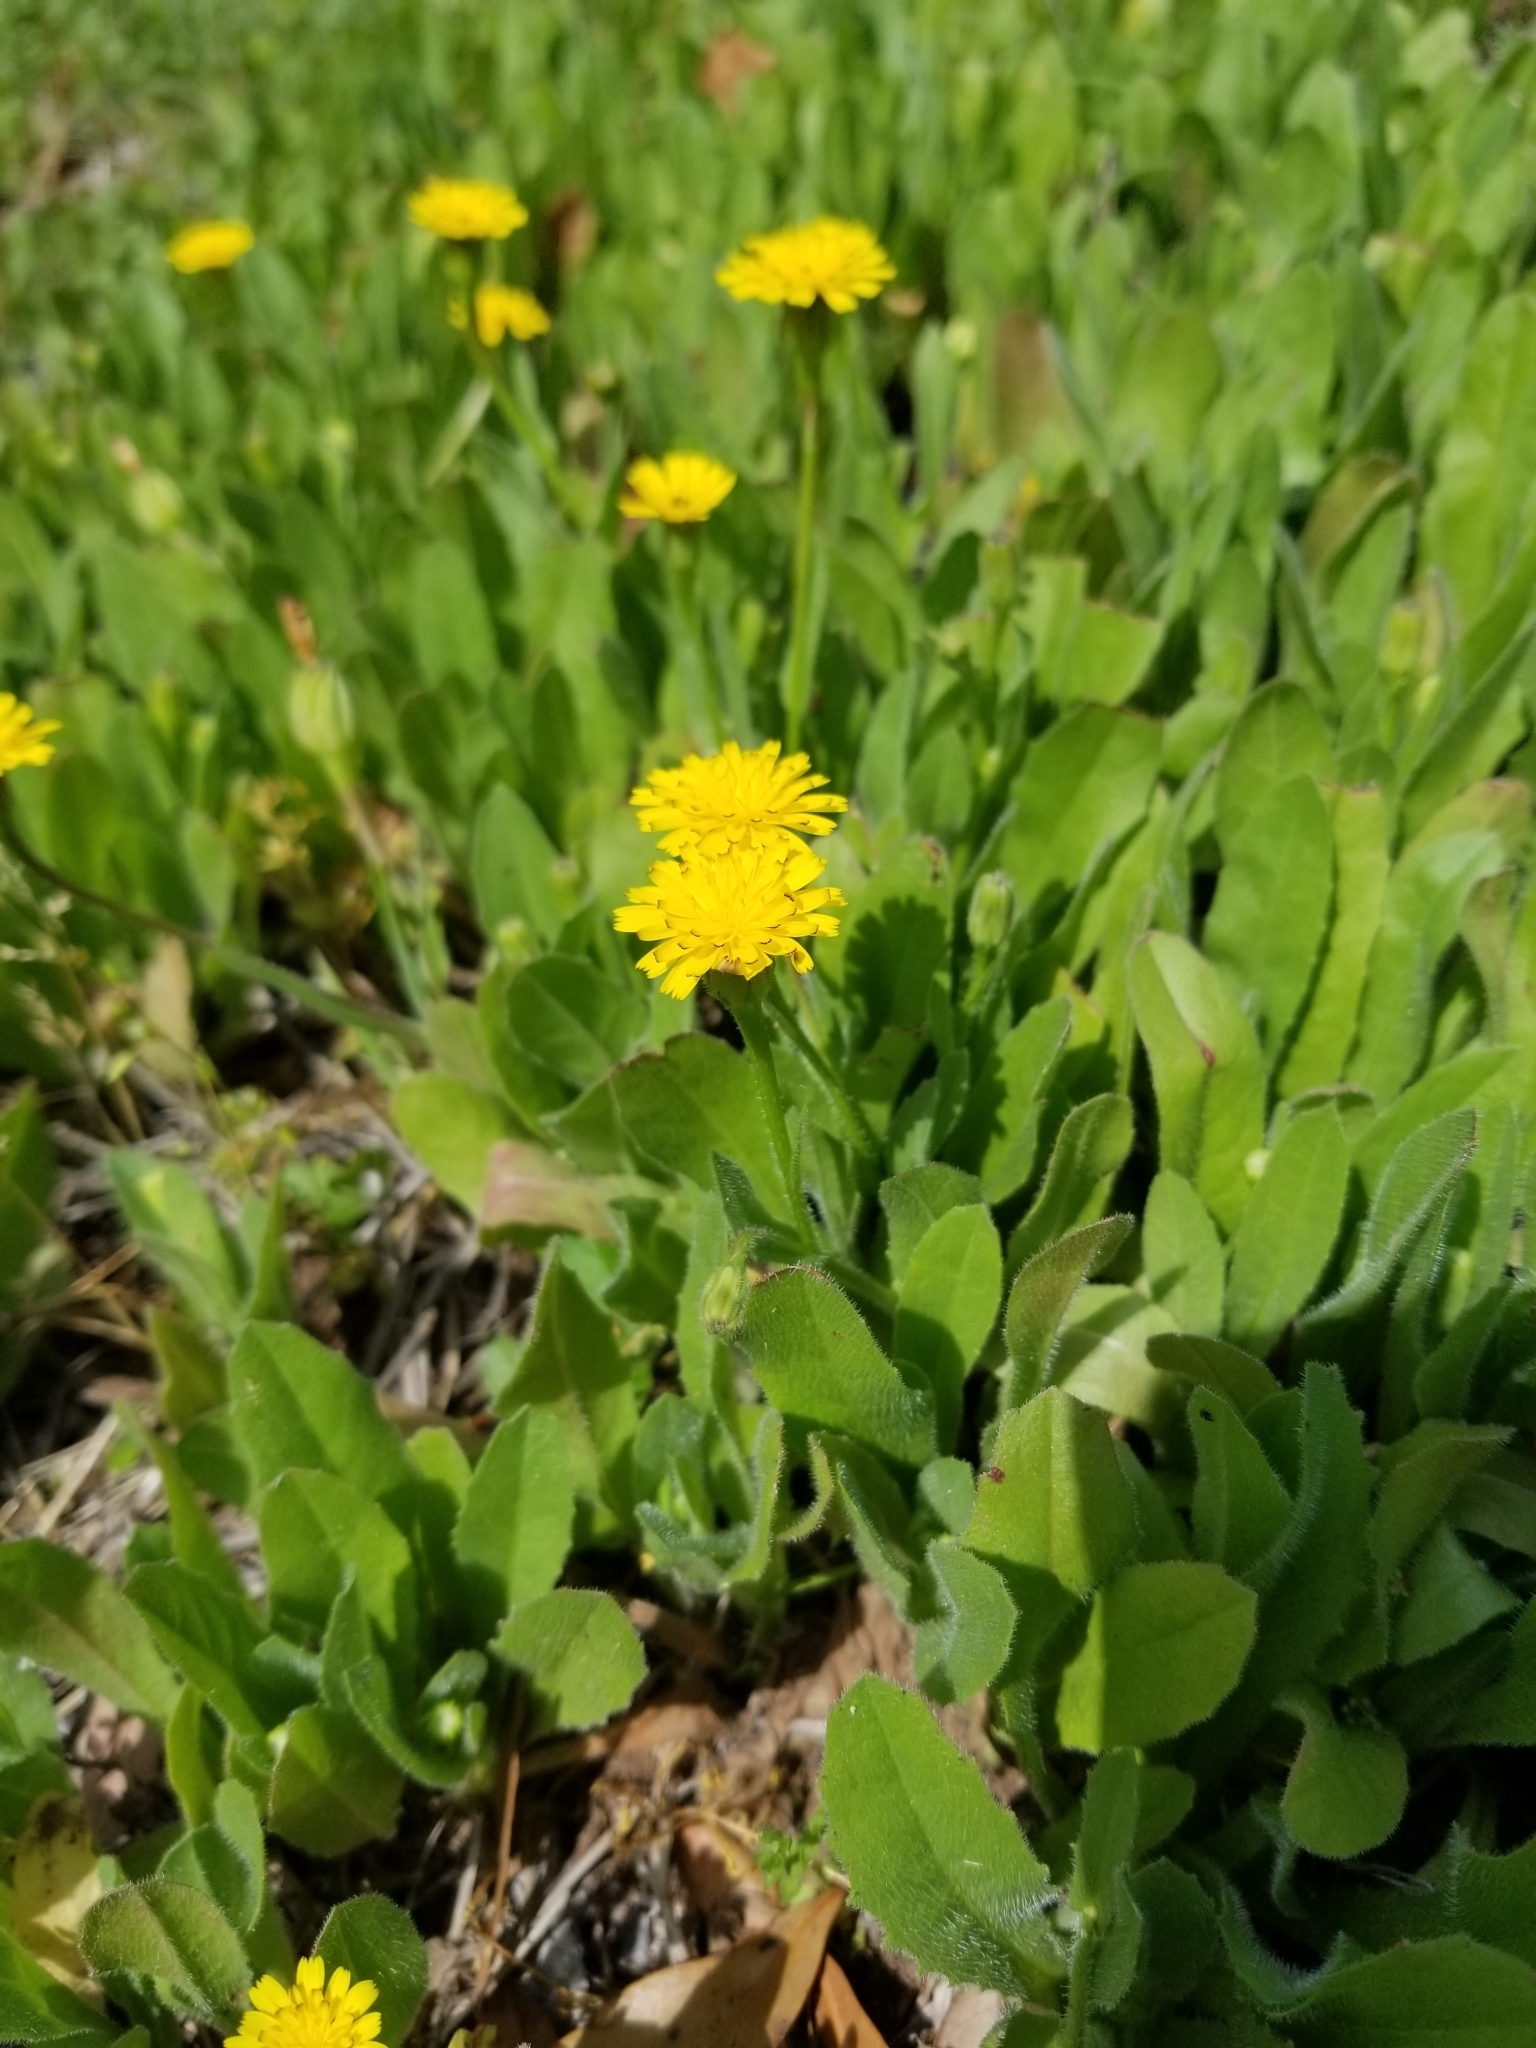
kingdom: Plantae
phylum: Tracheophyta
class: Magnoliopsida
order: Asterales
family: Asteraceae
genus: Hedypnois
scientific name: Hedypnois rhagadioloides
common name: Cretan weed
